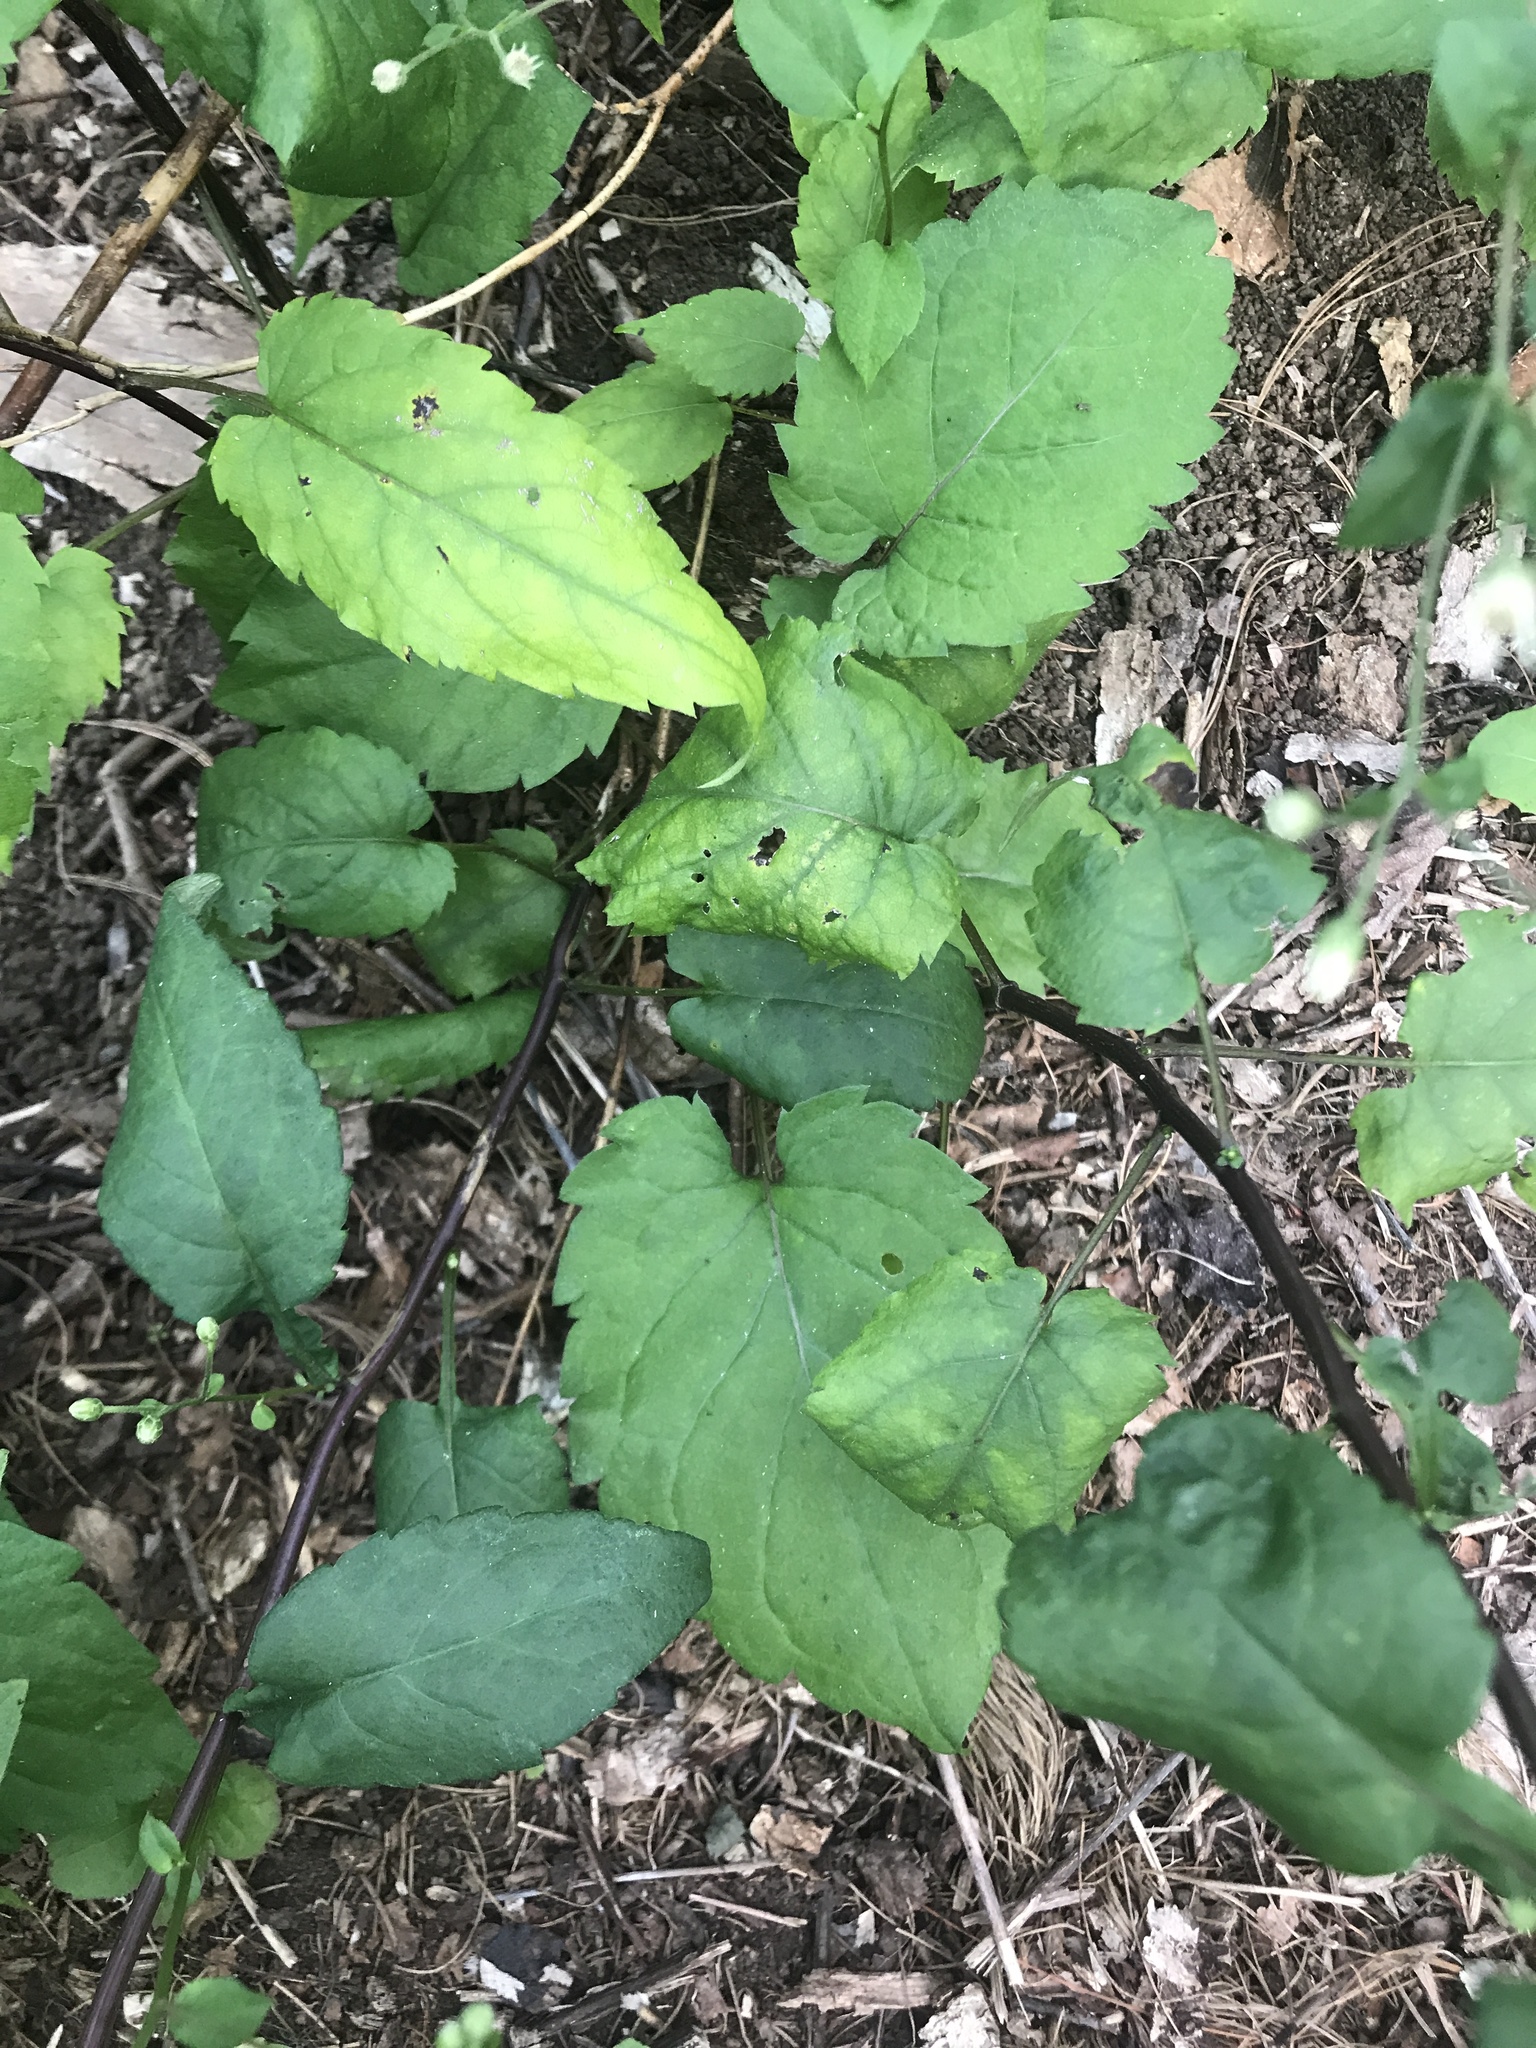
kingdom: Plantae
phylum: Tracheophyta
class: Magnoliopsida
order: Asterales
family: Asteraceae
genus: Eurybia
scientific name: Eurybia divaricata
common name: White wood aster
